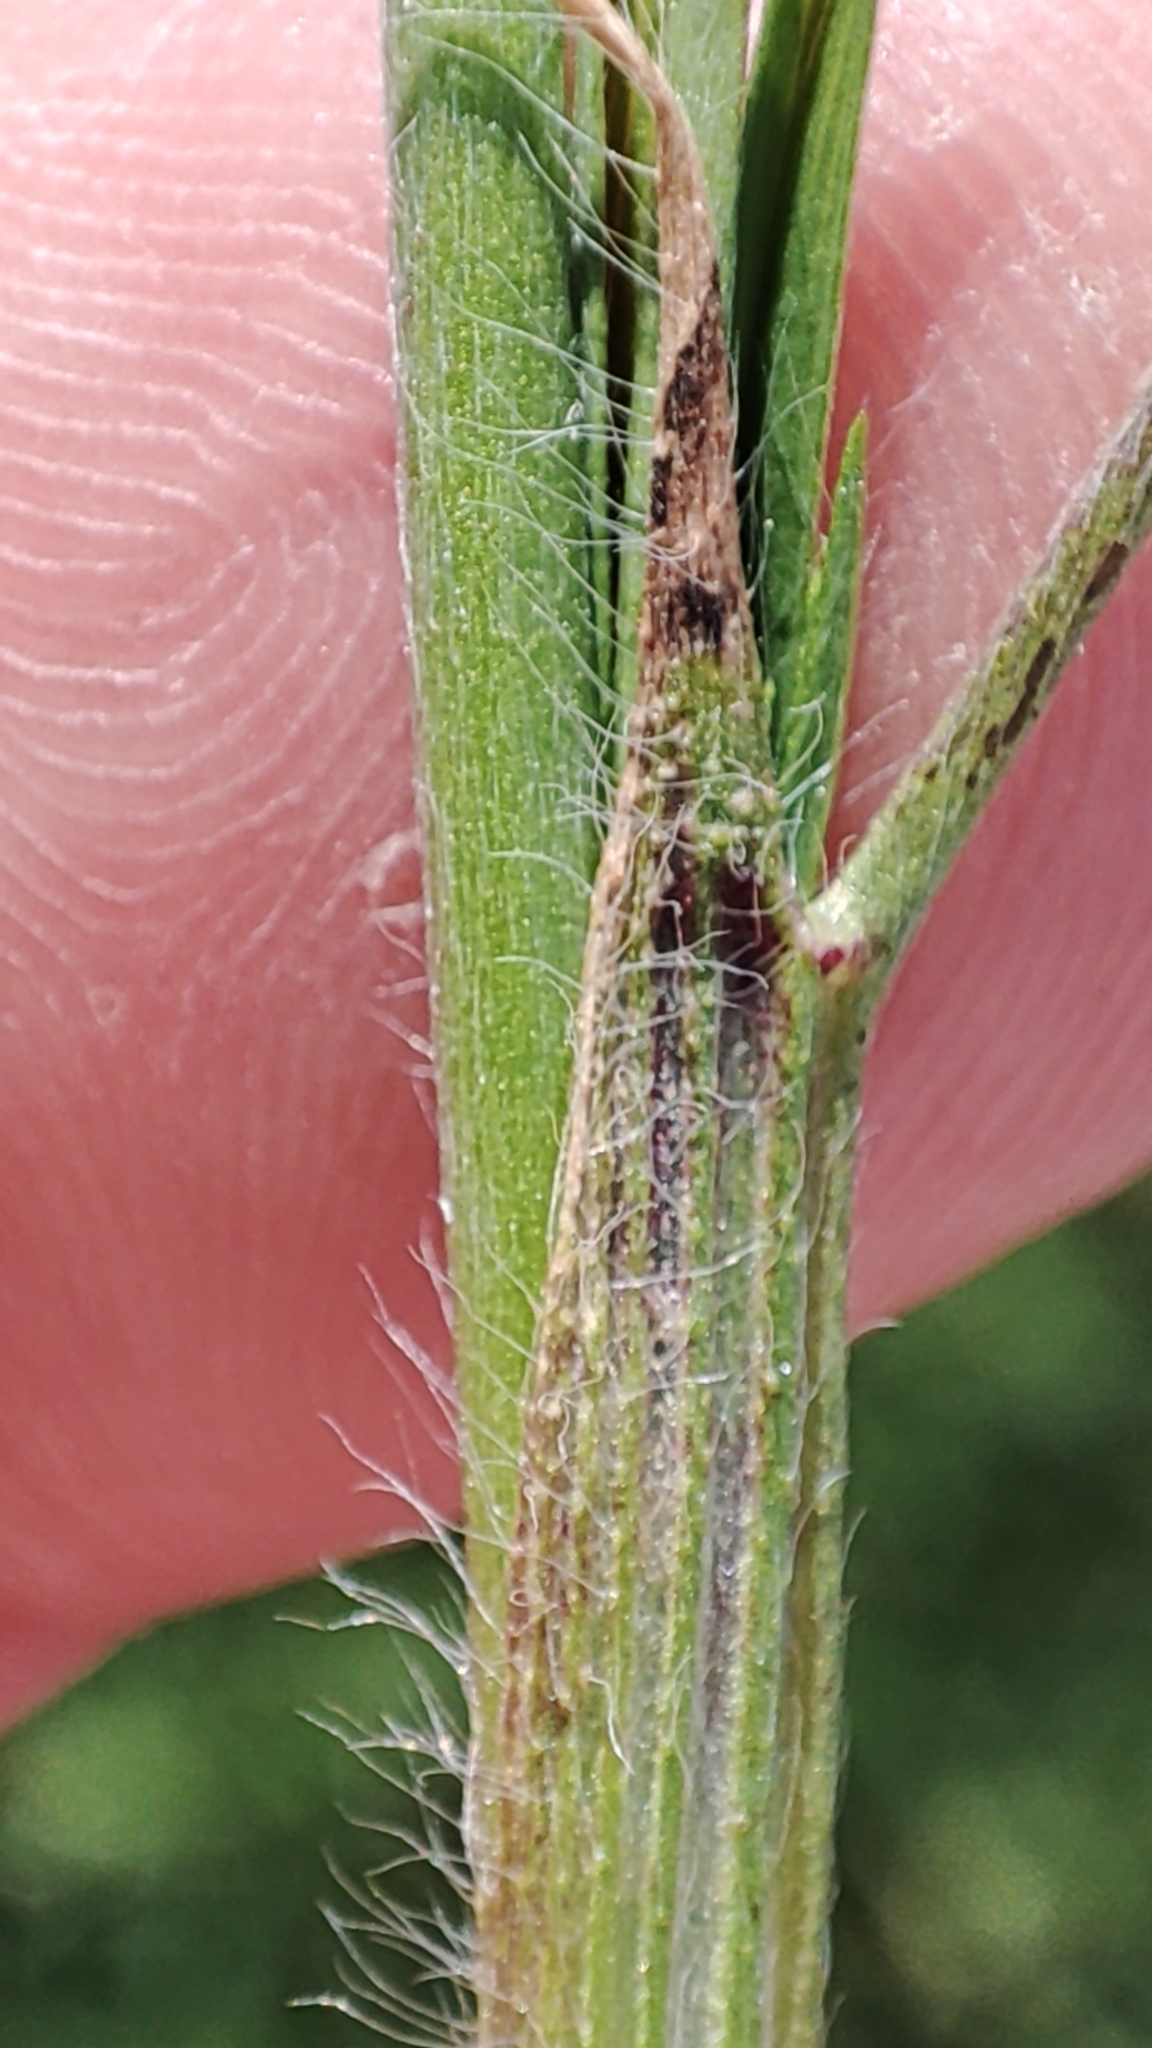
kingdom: Plantae
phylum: Tracheophyta
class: Magnoliopsida
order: Fabales
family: Fabaceae
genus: Trifolium
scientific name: Trifolium angustifolium
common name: Narrow clover
